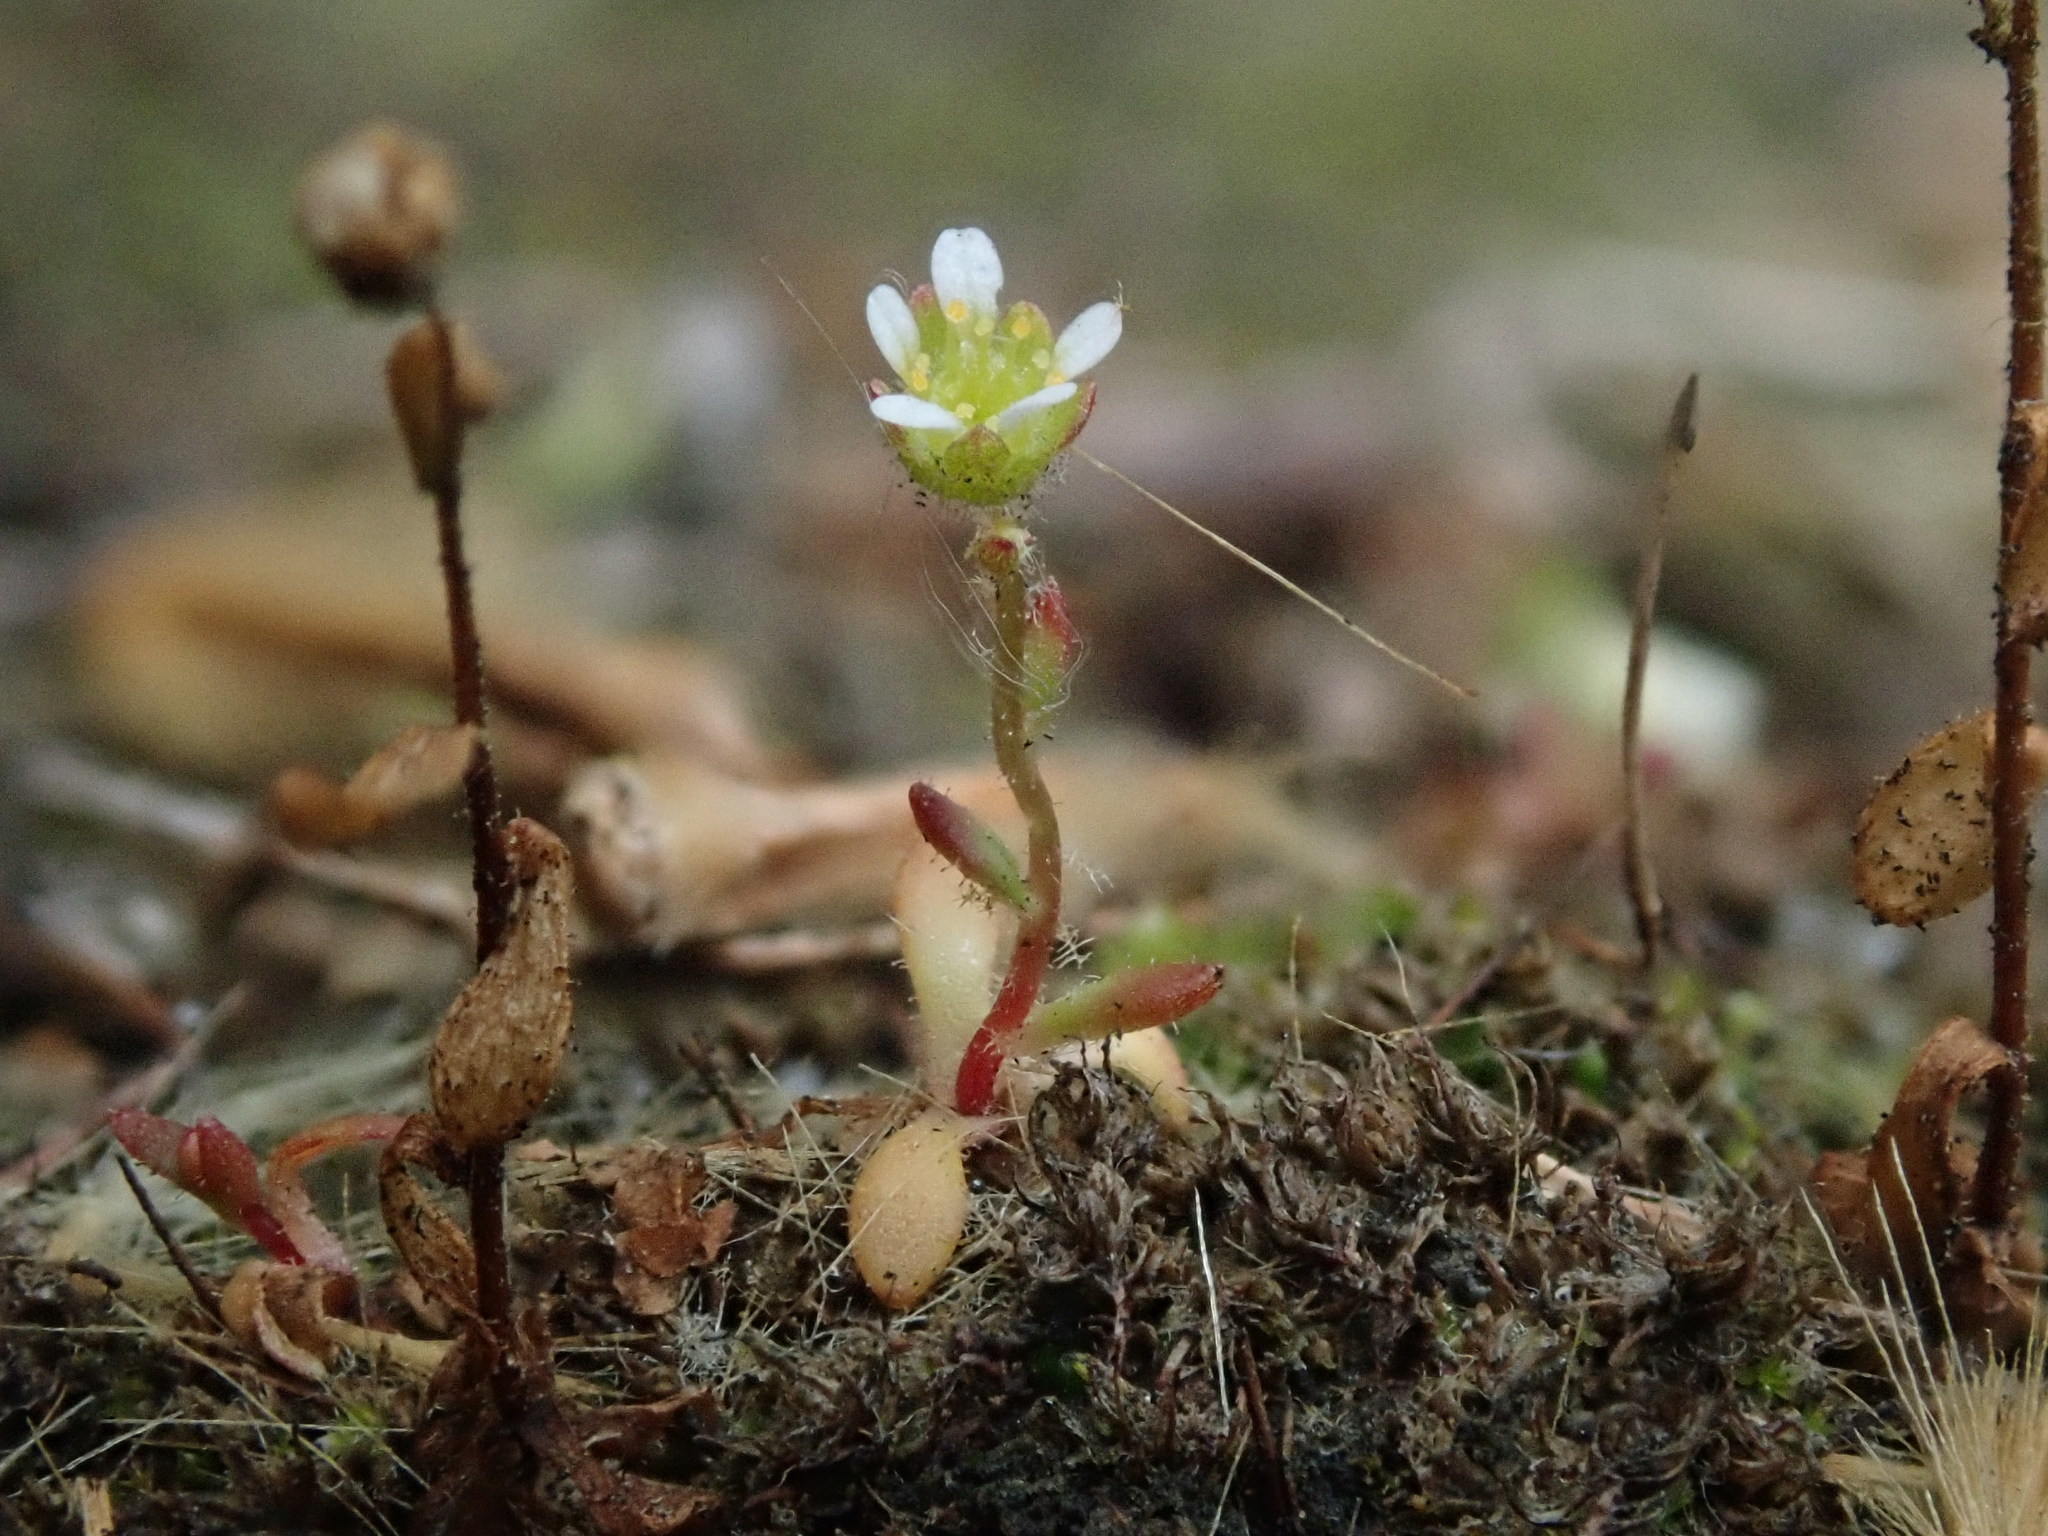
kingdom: Plantae
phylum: Tracheophyta
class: Magnoliopsida
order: Saxifragales
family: Saxifragaceae
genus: Saxifraga
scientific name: Saxifraga tridactylites
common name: Rue-leaved saxifrage
